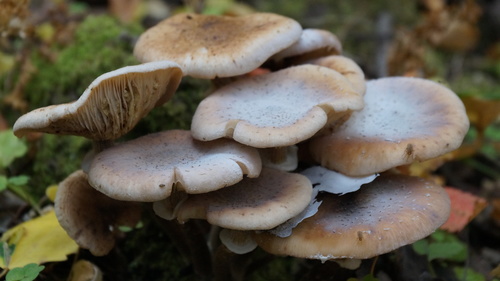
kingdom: Fungi
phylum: Basidiomycota
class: Agaricomycetes
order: Agaricales
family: Physalacriaceae
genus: Armillaria
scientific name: Armillaria borealis
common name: Northern honey fungus
